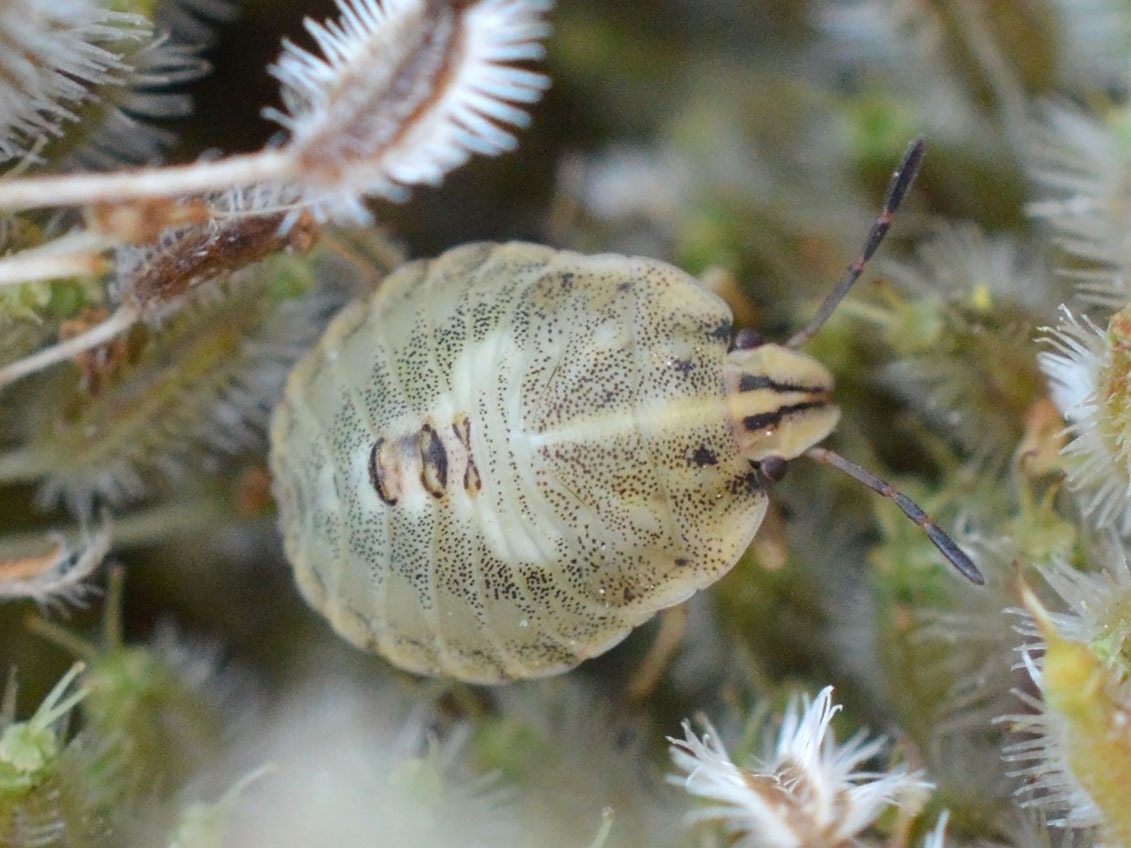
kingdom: Animalia
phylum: Arthropoda
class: Insecta
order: Hemiptera
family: Pentatomidae
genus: Graphosoma
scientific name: Graphosoma italicum
